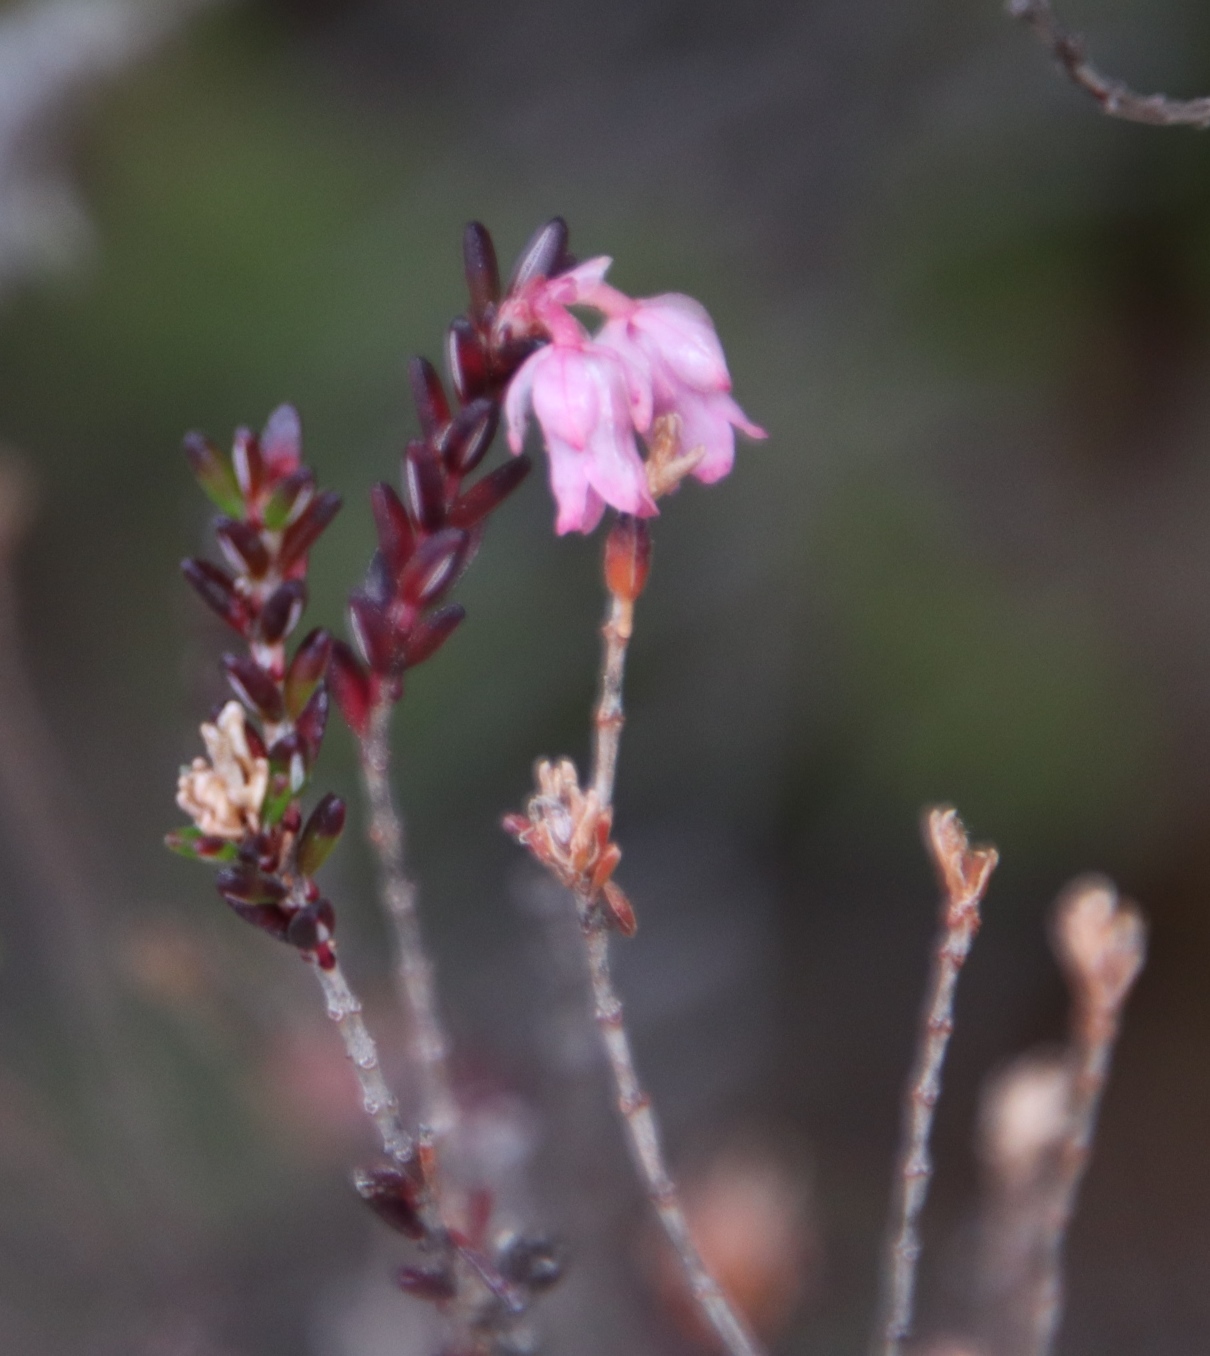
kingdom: Plantae
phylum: Tracheophyta
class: Magnoliopsida
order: Ericales
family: Ericaceae
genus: Erica
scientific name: Erica brevifolia
